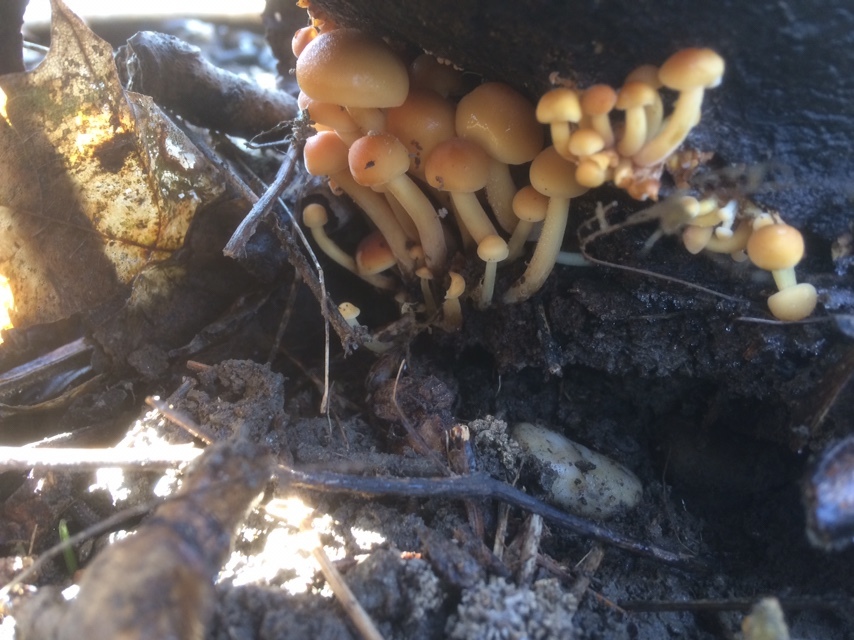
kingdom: Fungi
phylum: Basidiomycota
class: Agaricomycetes
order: Agaricales
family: Physalacriaceae
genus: Flammulina
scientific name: Flammulina
